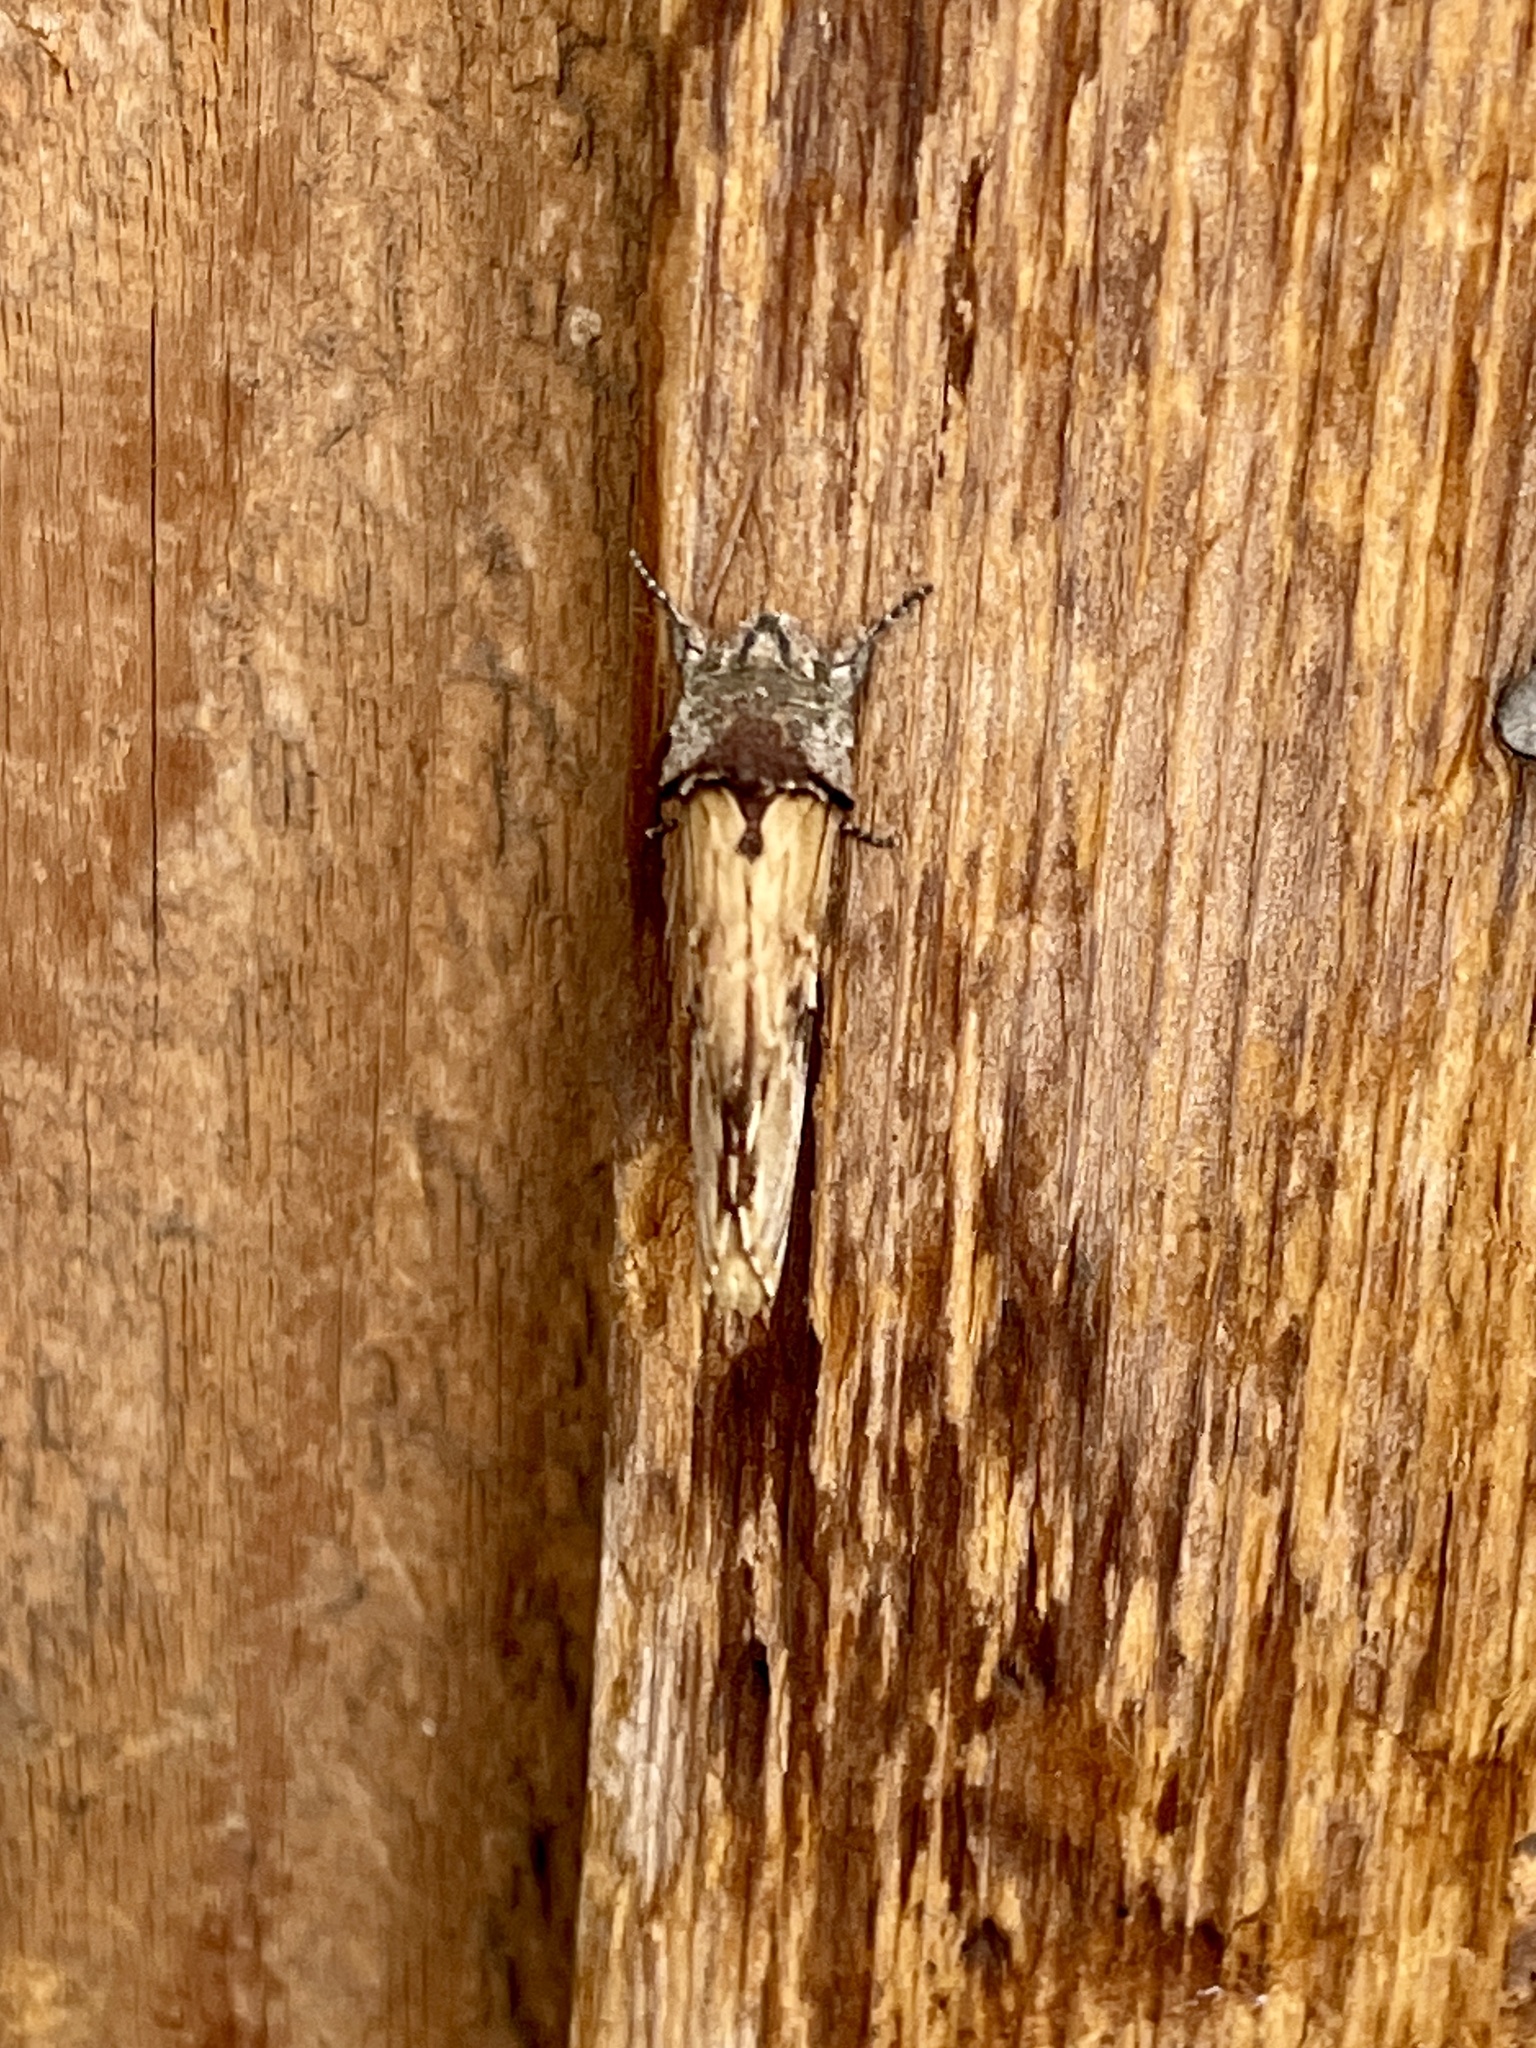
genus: Ianassa
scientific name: Ianassa
